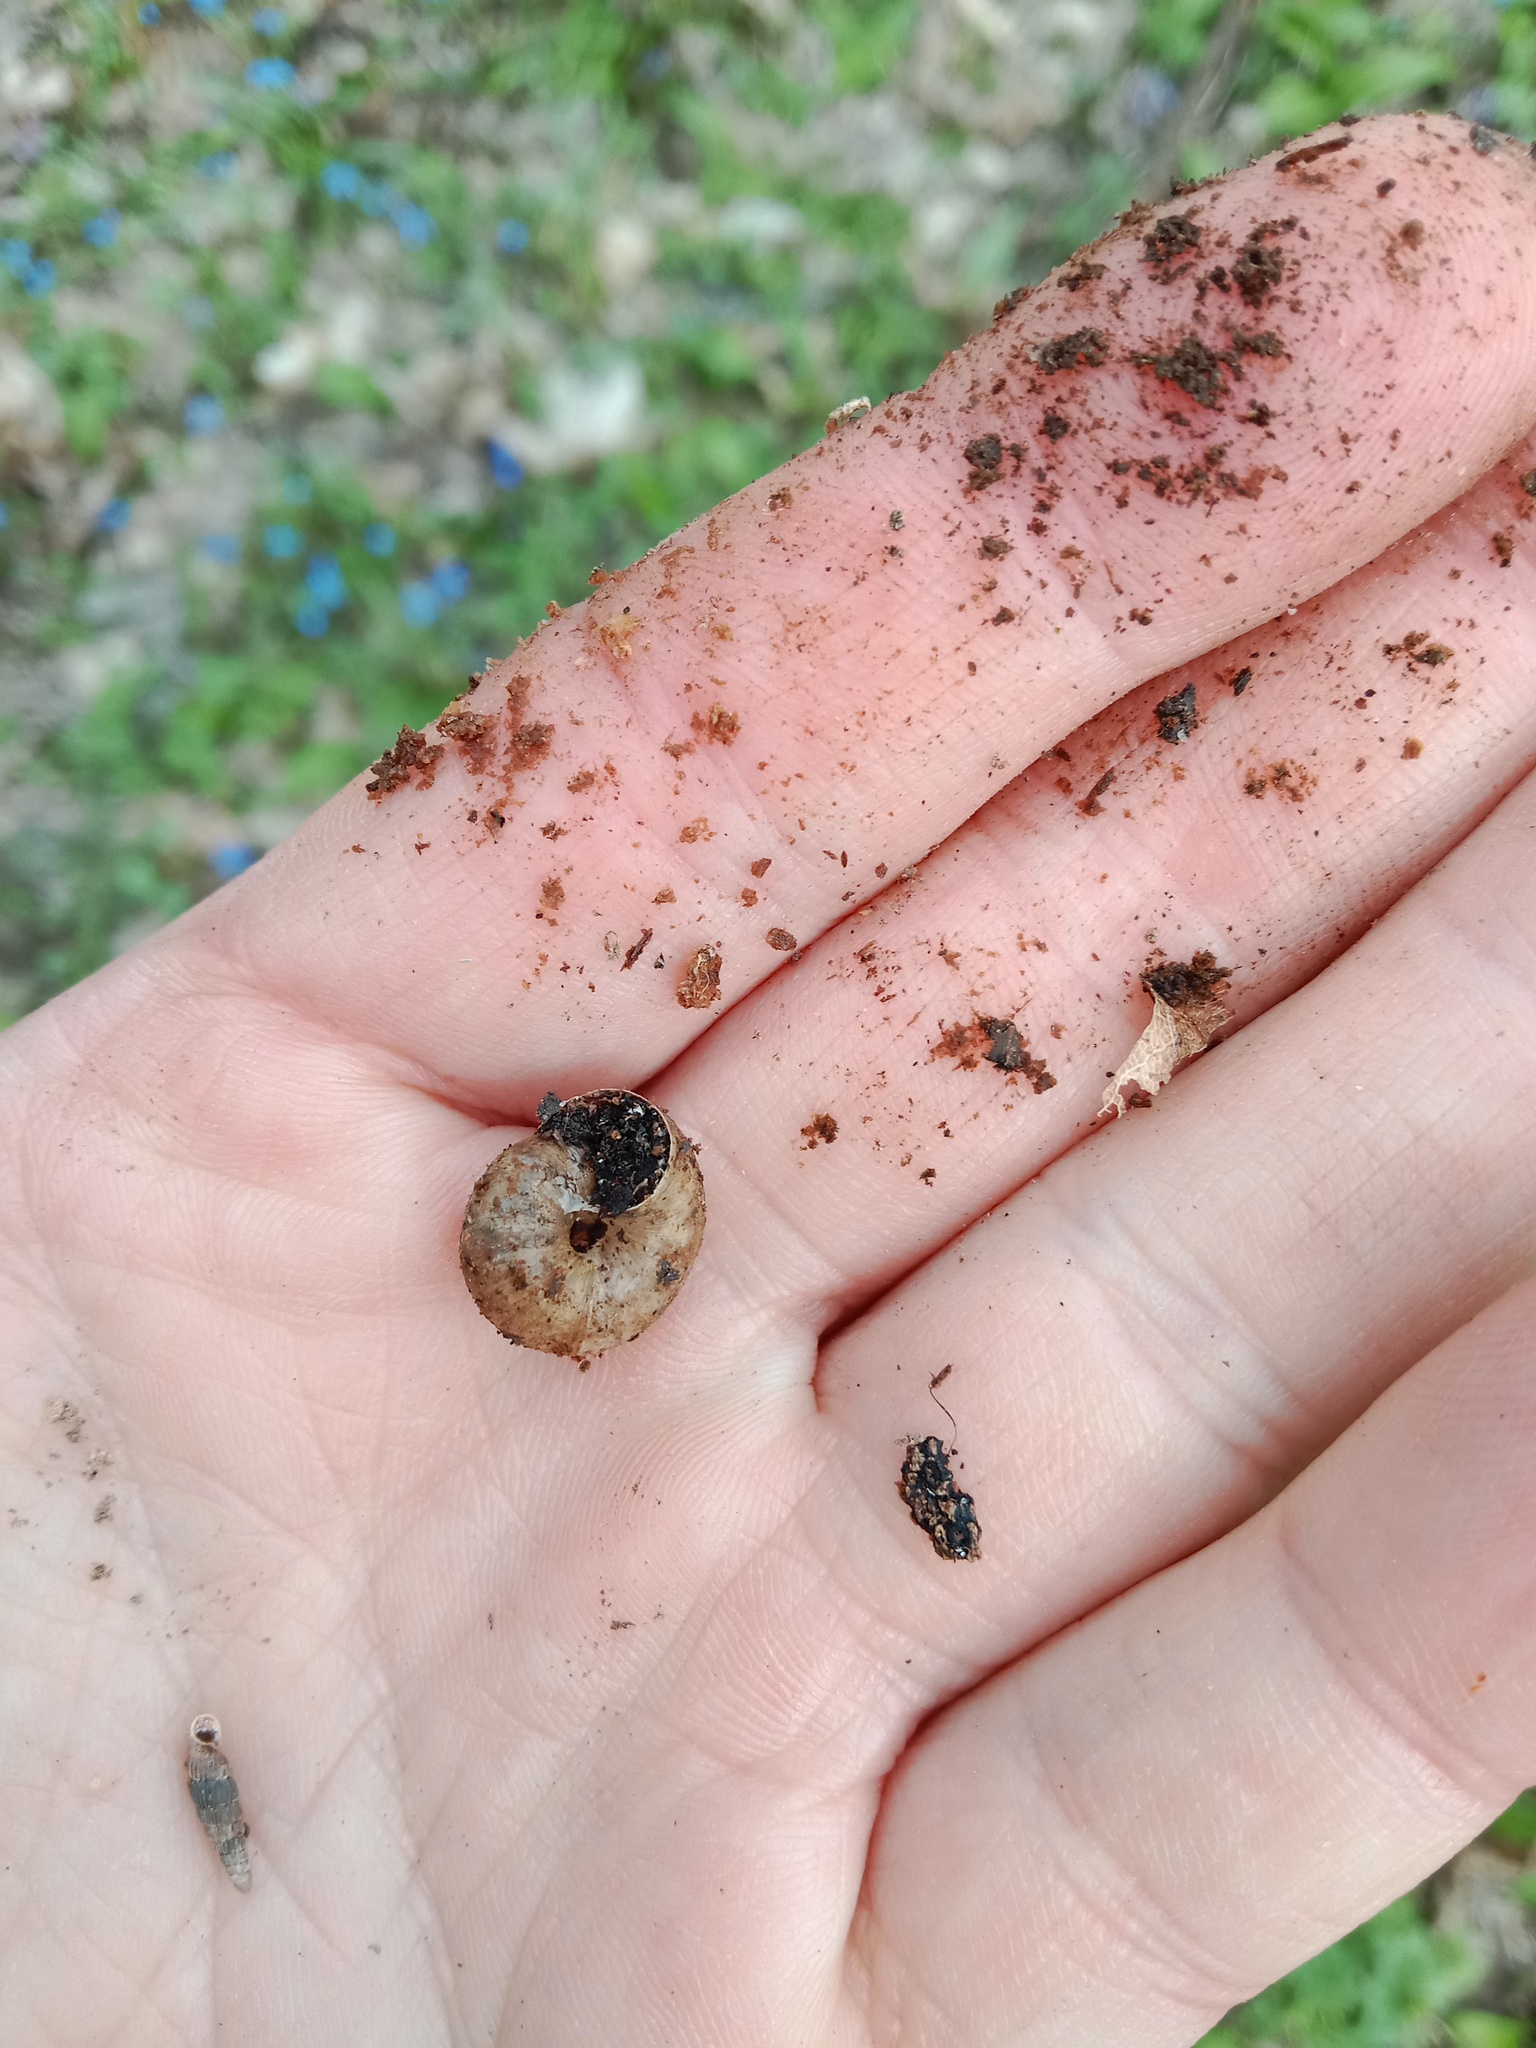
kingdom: Animalia
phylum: Mollusca
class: Gastropoda
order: Stylommatophora
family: Hygromiidae
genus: Euomphalia
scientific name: Euomphalia strigella
